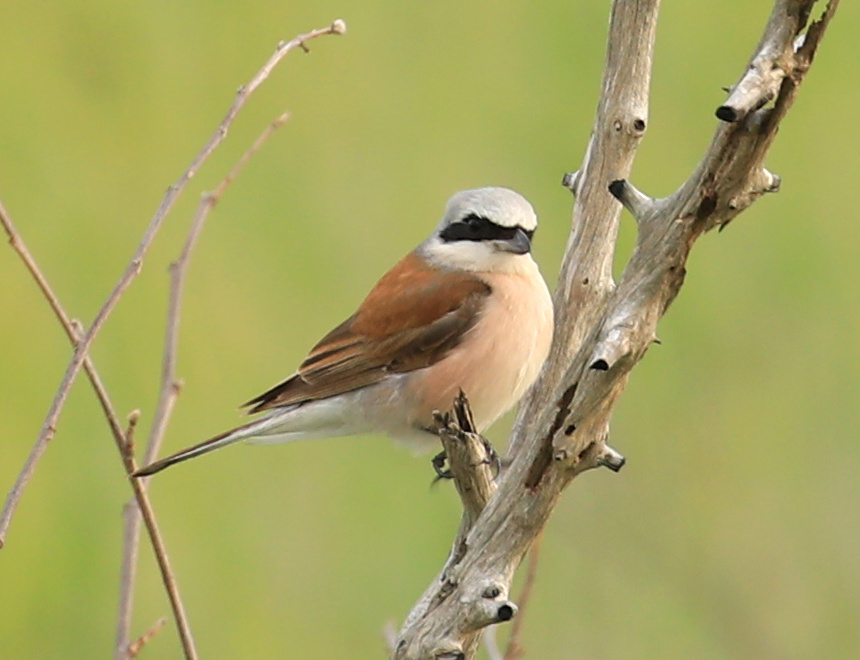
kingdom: Animalia
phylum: Chordata
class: Aves
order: Passeriformes
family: Laniidae
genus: Lanius
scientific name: Lanius collurio
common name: Red-backed shrike
